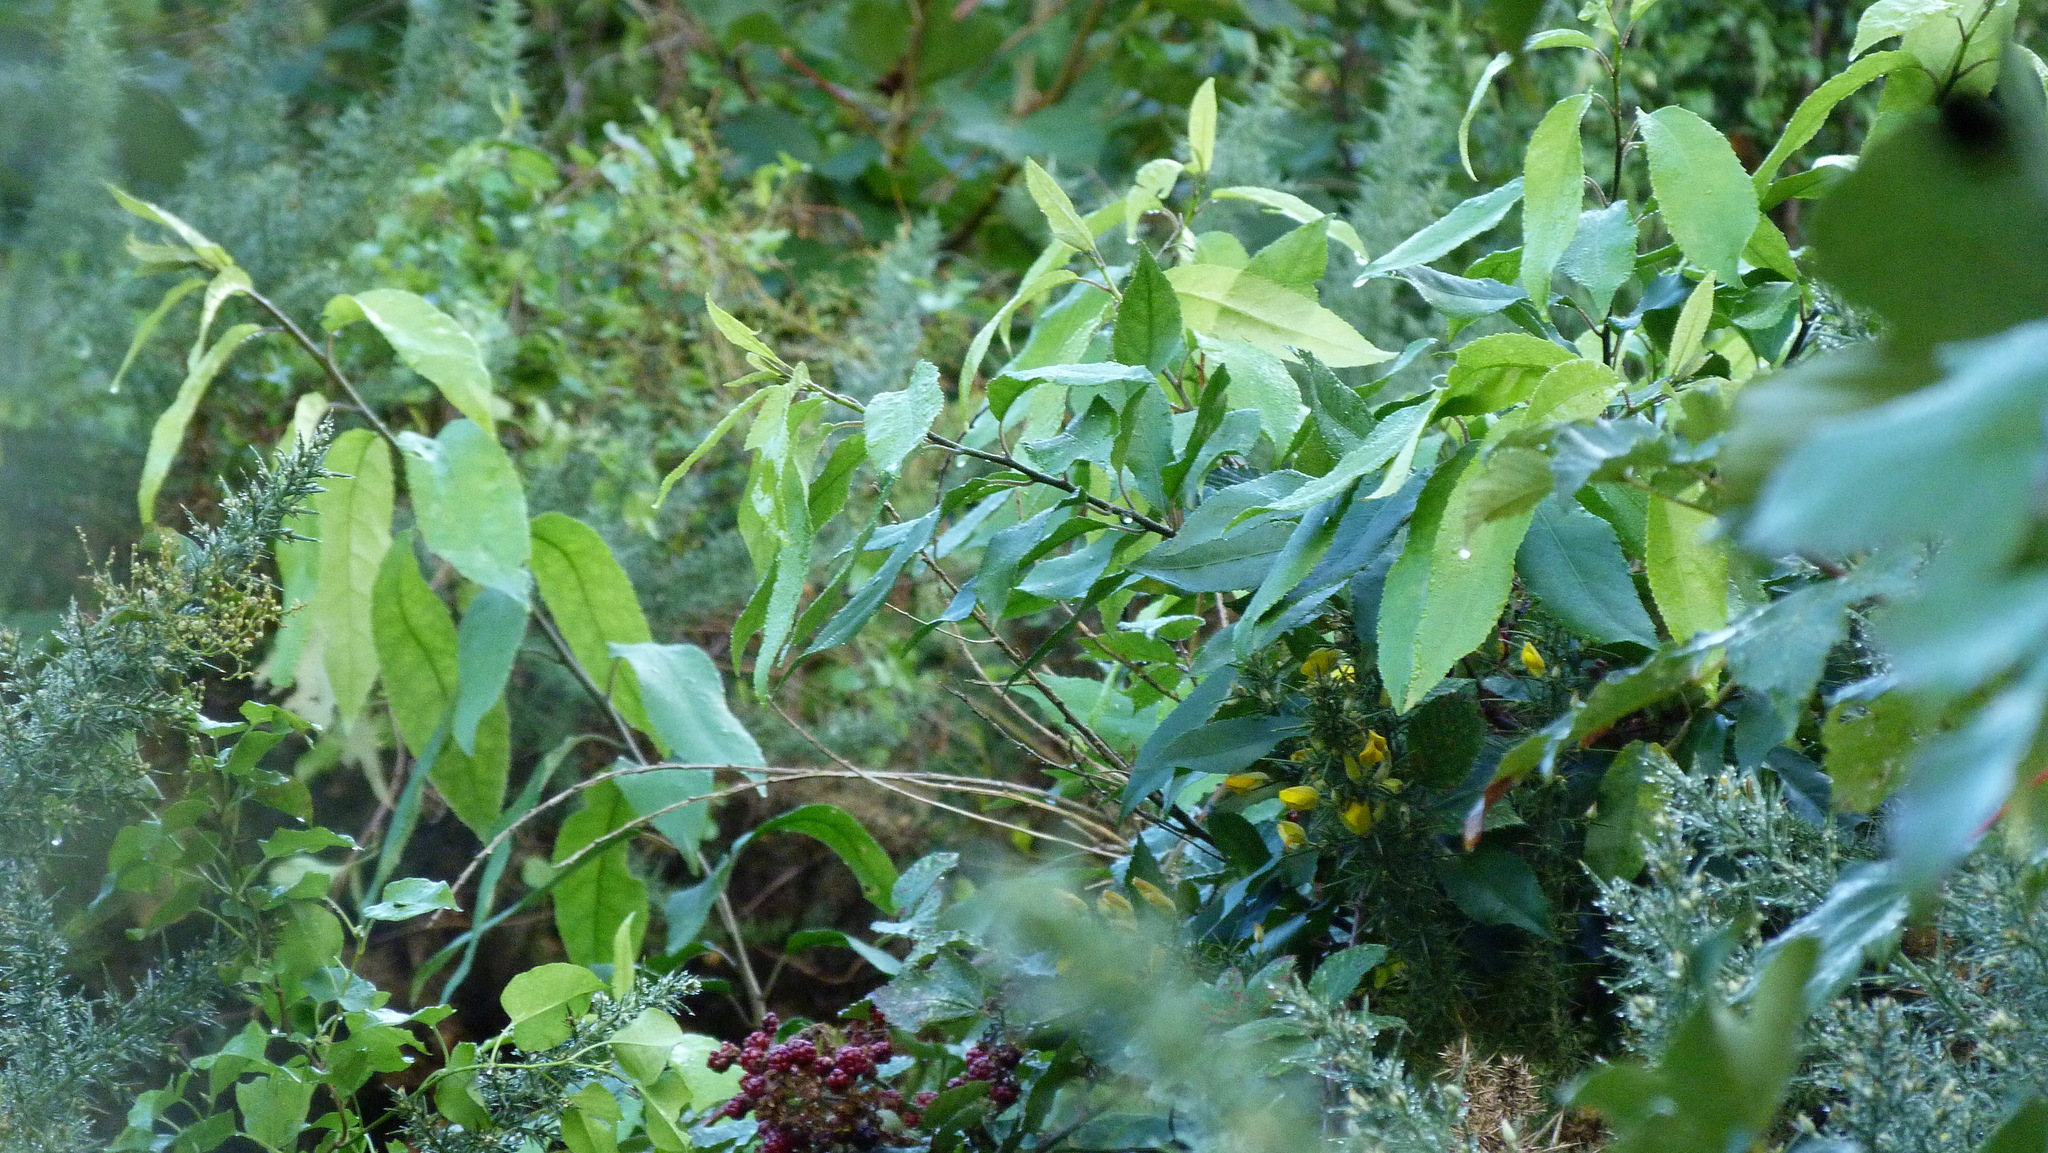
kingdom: Plantae
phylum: Tracheophyta
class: Magnoliopsida
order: Malpighiales
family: Violaceae
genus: Melicytus
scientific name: Melicytus ramiflorus
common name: Mahoe
